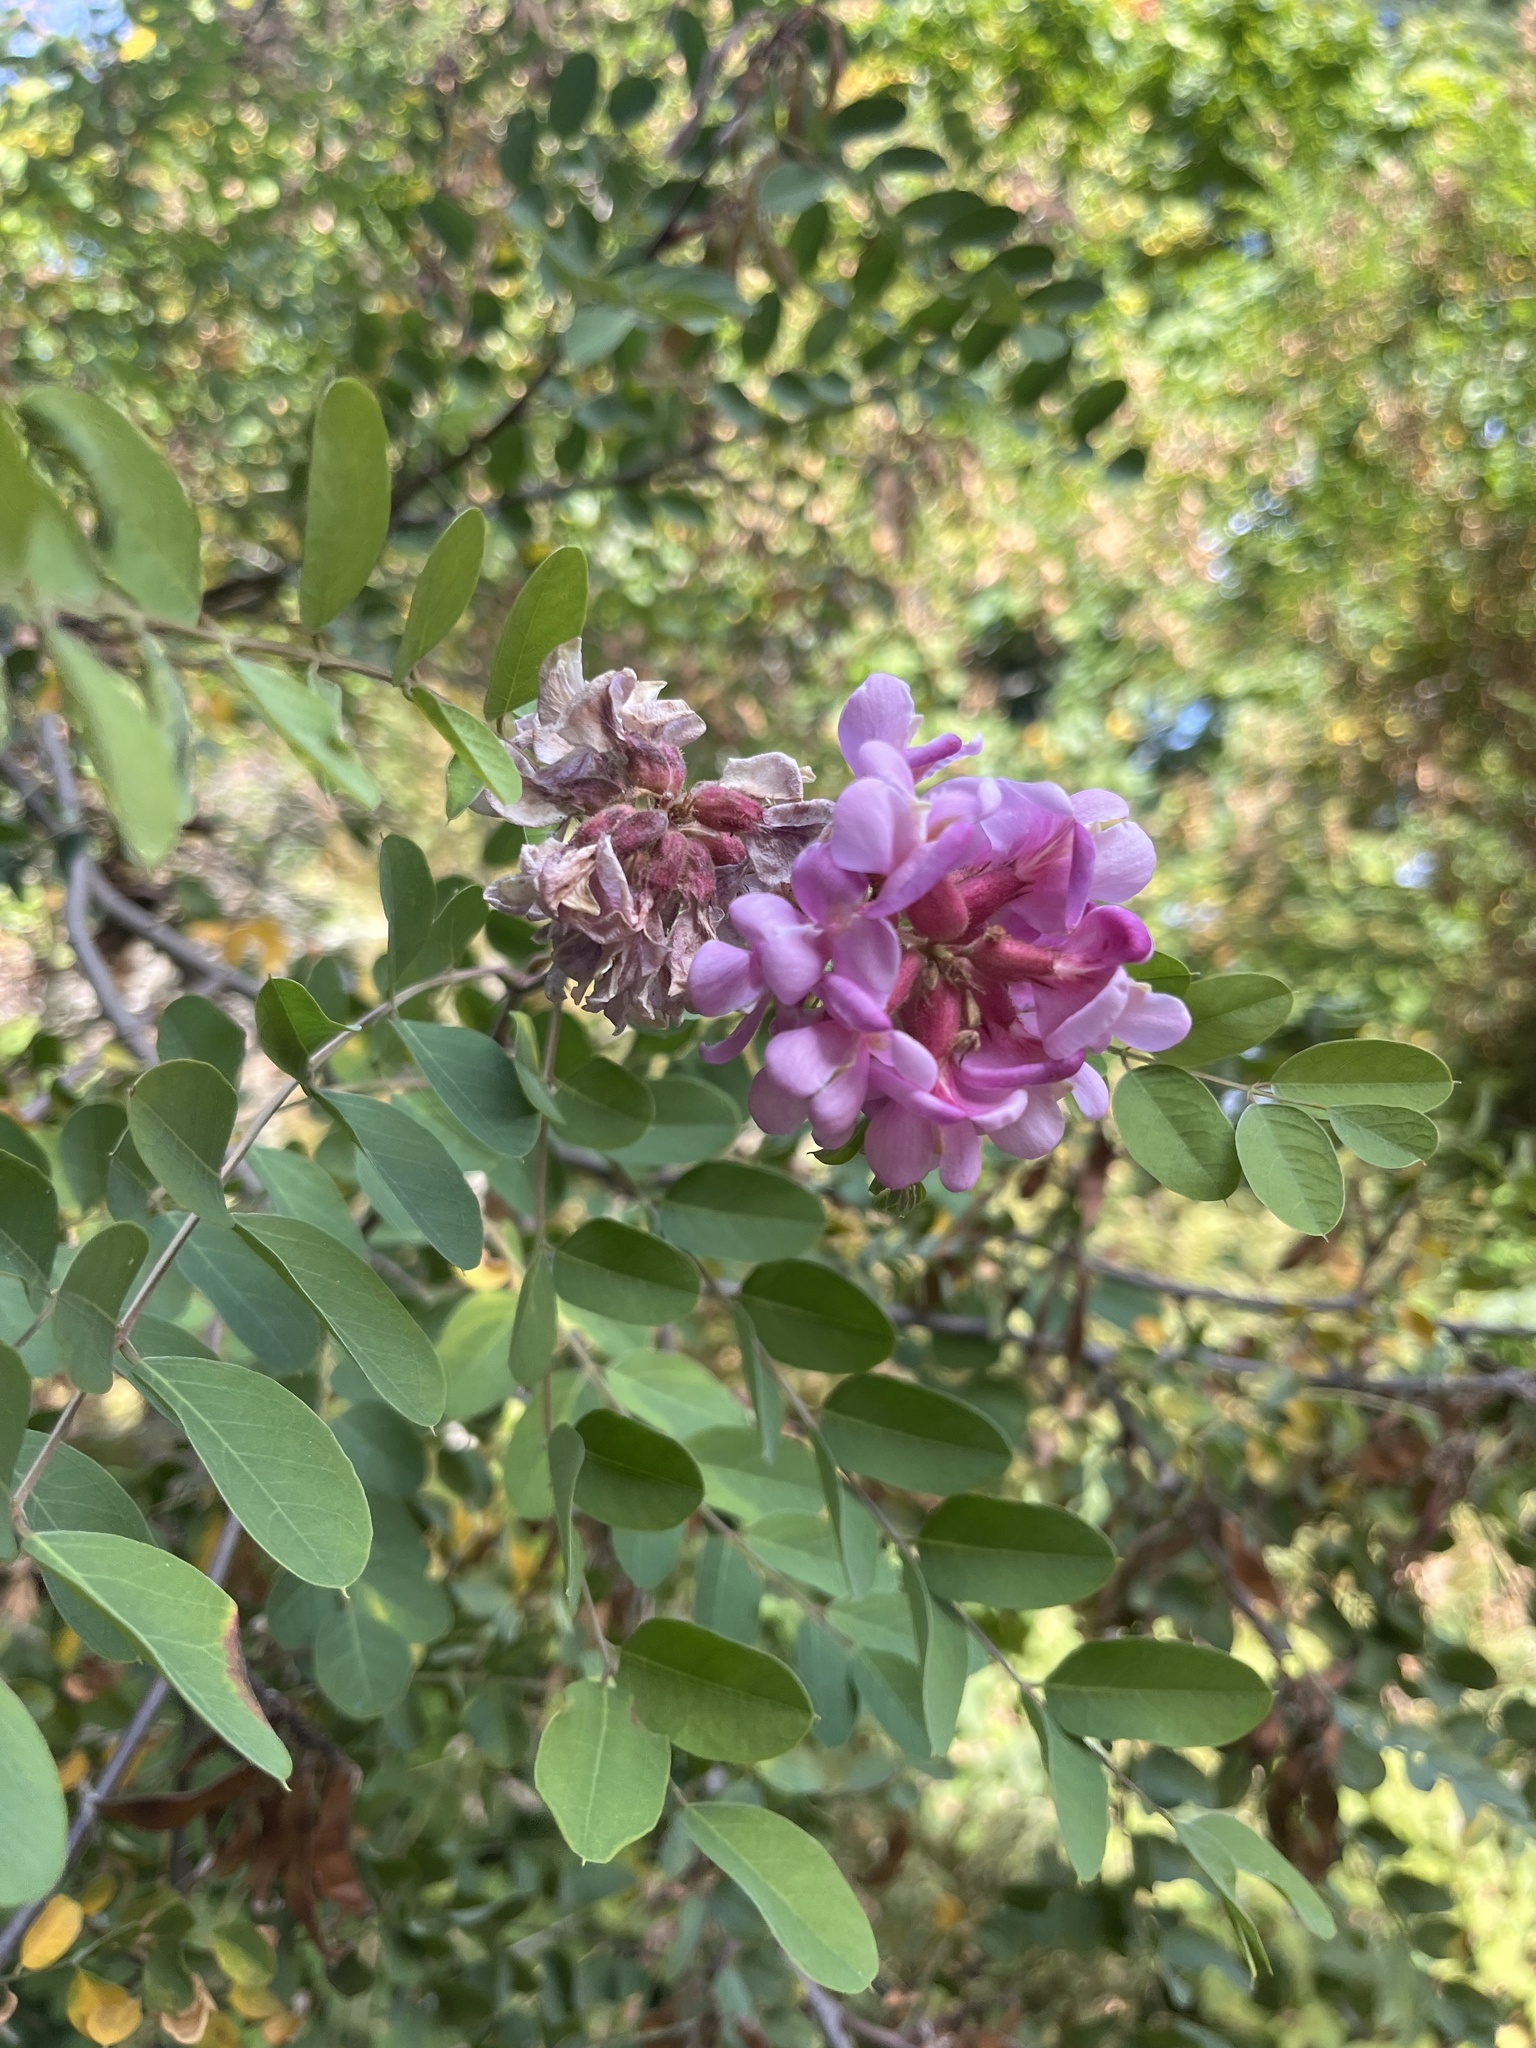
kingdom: Plantae
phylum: Tracheophyta
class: Magnoliopsida
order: Fabales
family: Fabaceae
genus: Robinia
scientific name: Robinia hispida
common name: Bristly locust
